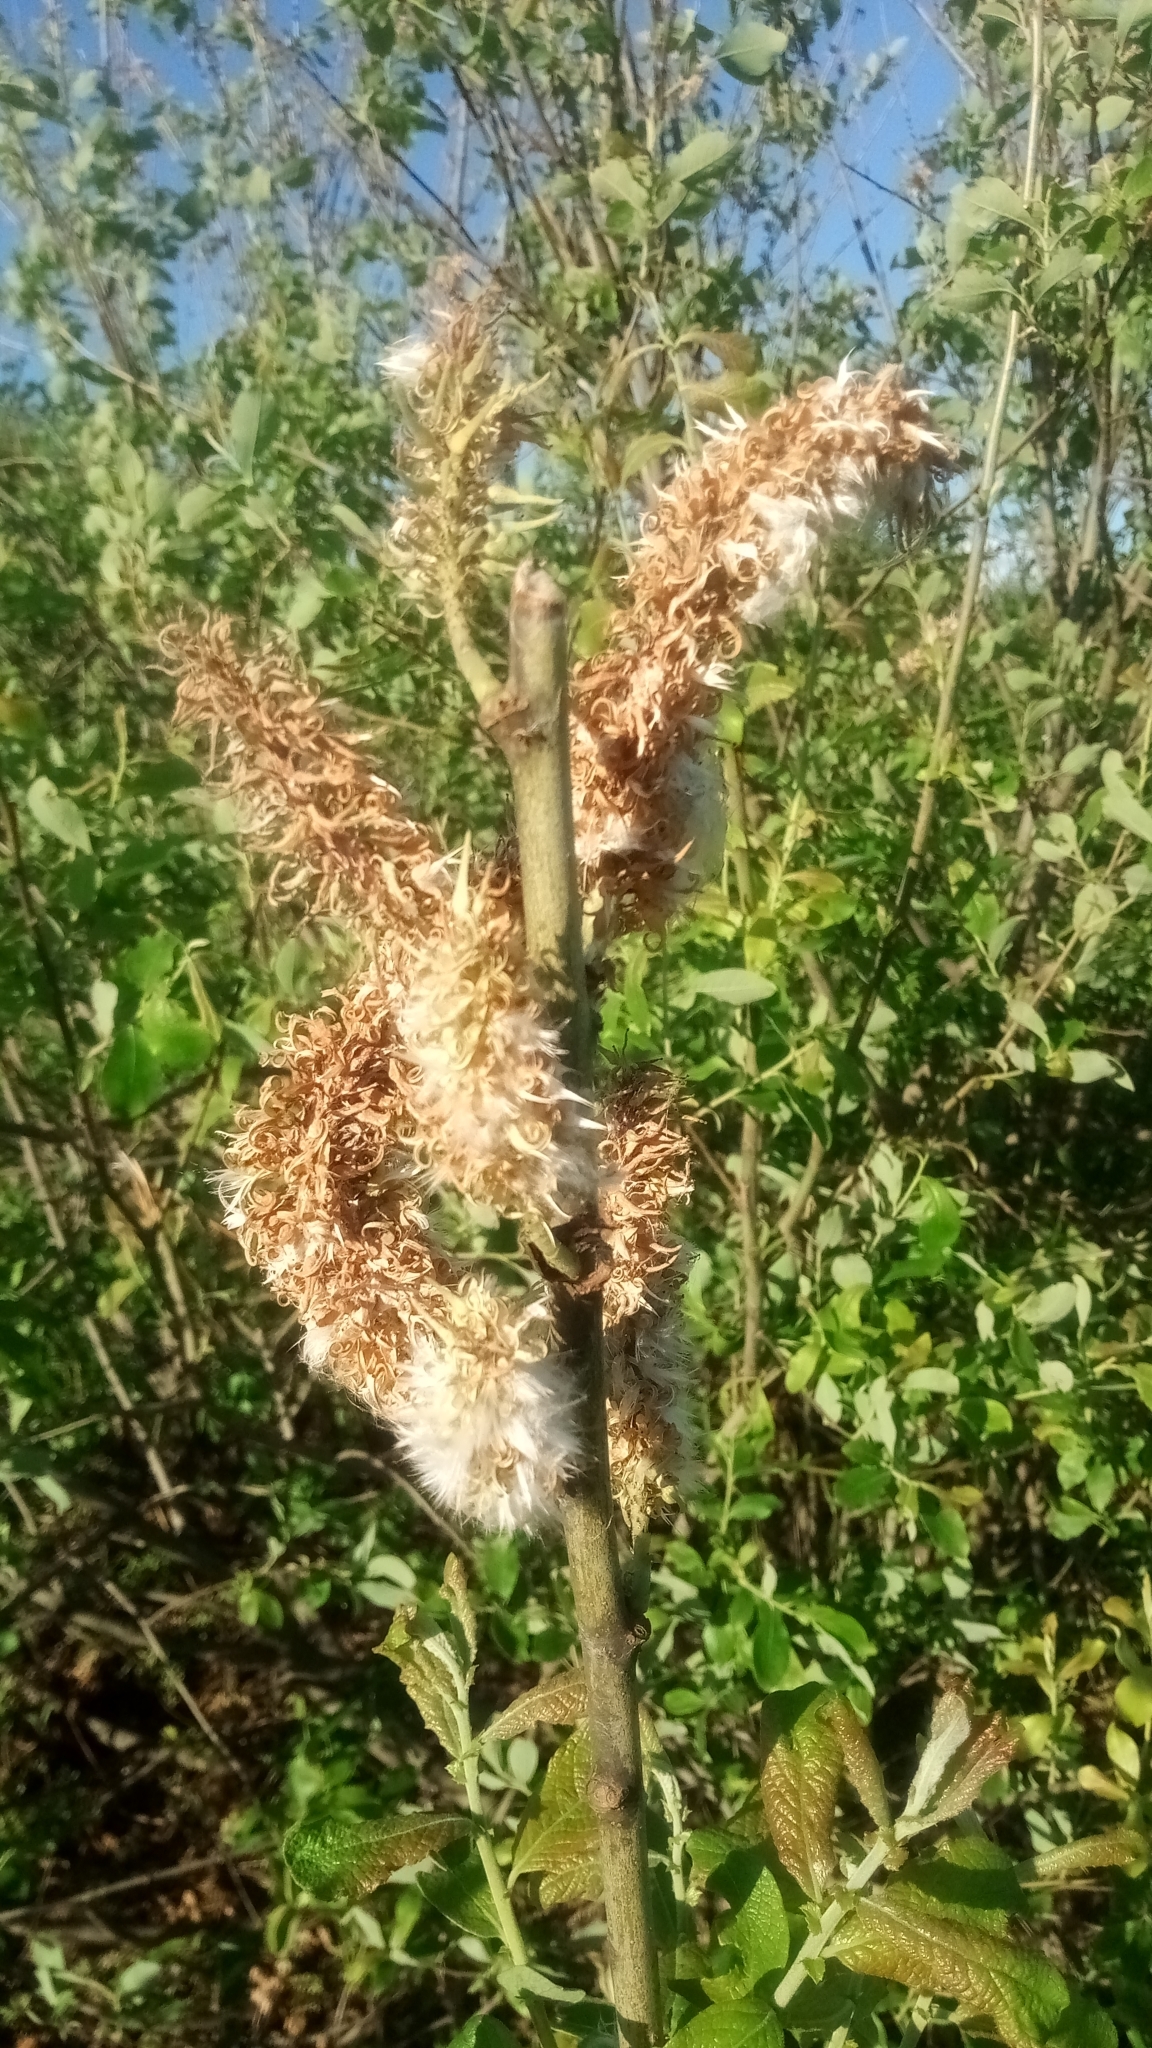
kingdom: Plantae
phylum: Tracheophyta
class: Magnoliopsida
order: Malpighiales
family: Salicaceae
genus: Salix
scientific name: Salix cinerea
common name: Common sallow
